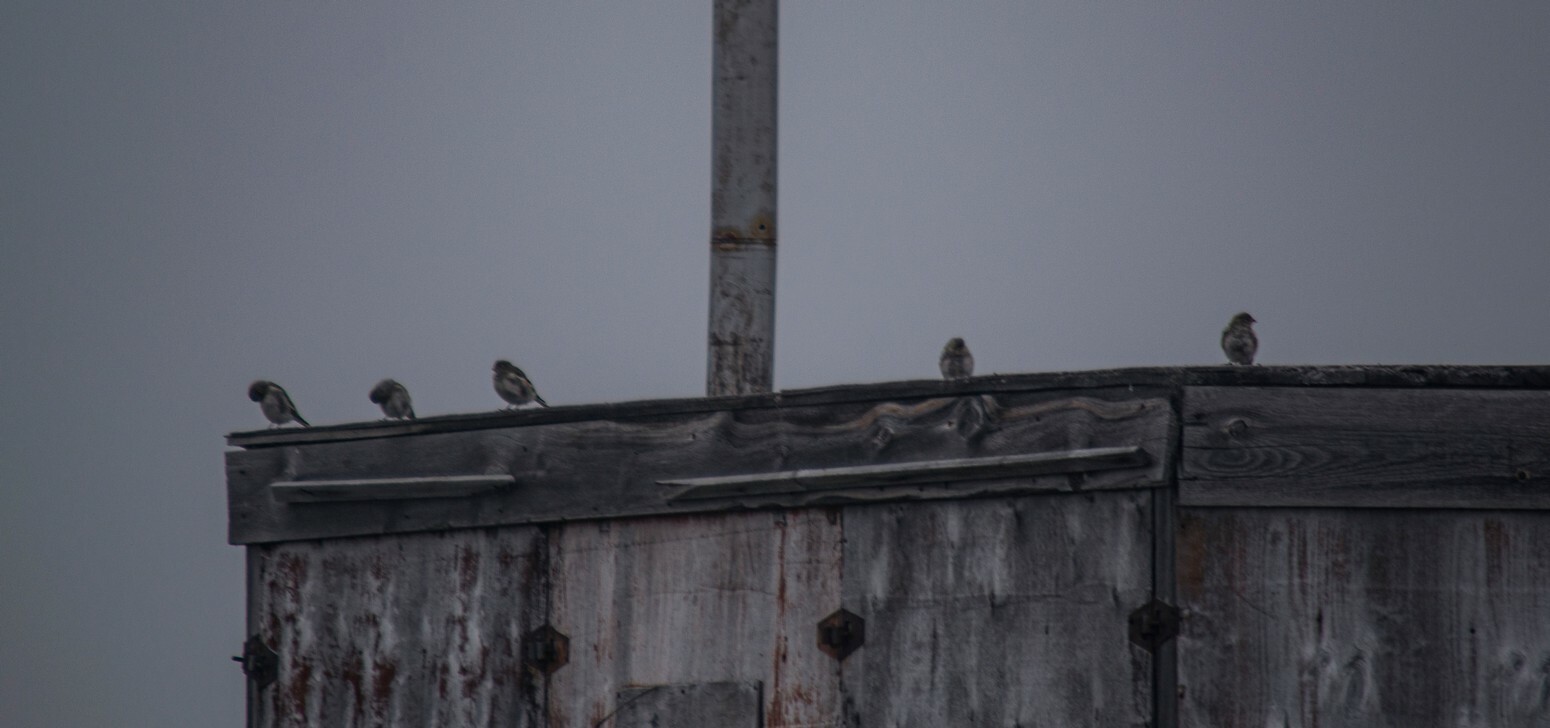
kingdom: Animalia
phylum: Chordata
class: Aves
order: Passeriformes
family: Calcariidae
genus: Plectrophenax
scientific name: Plectrophenax nivalis
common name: Snow bunting
